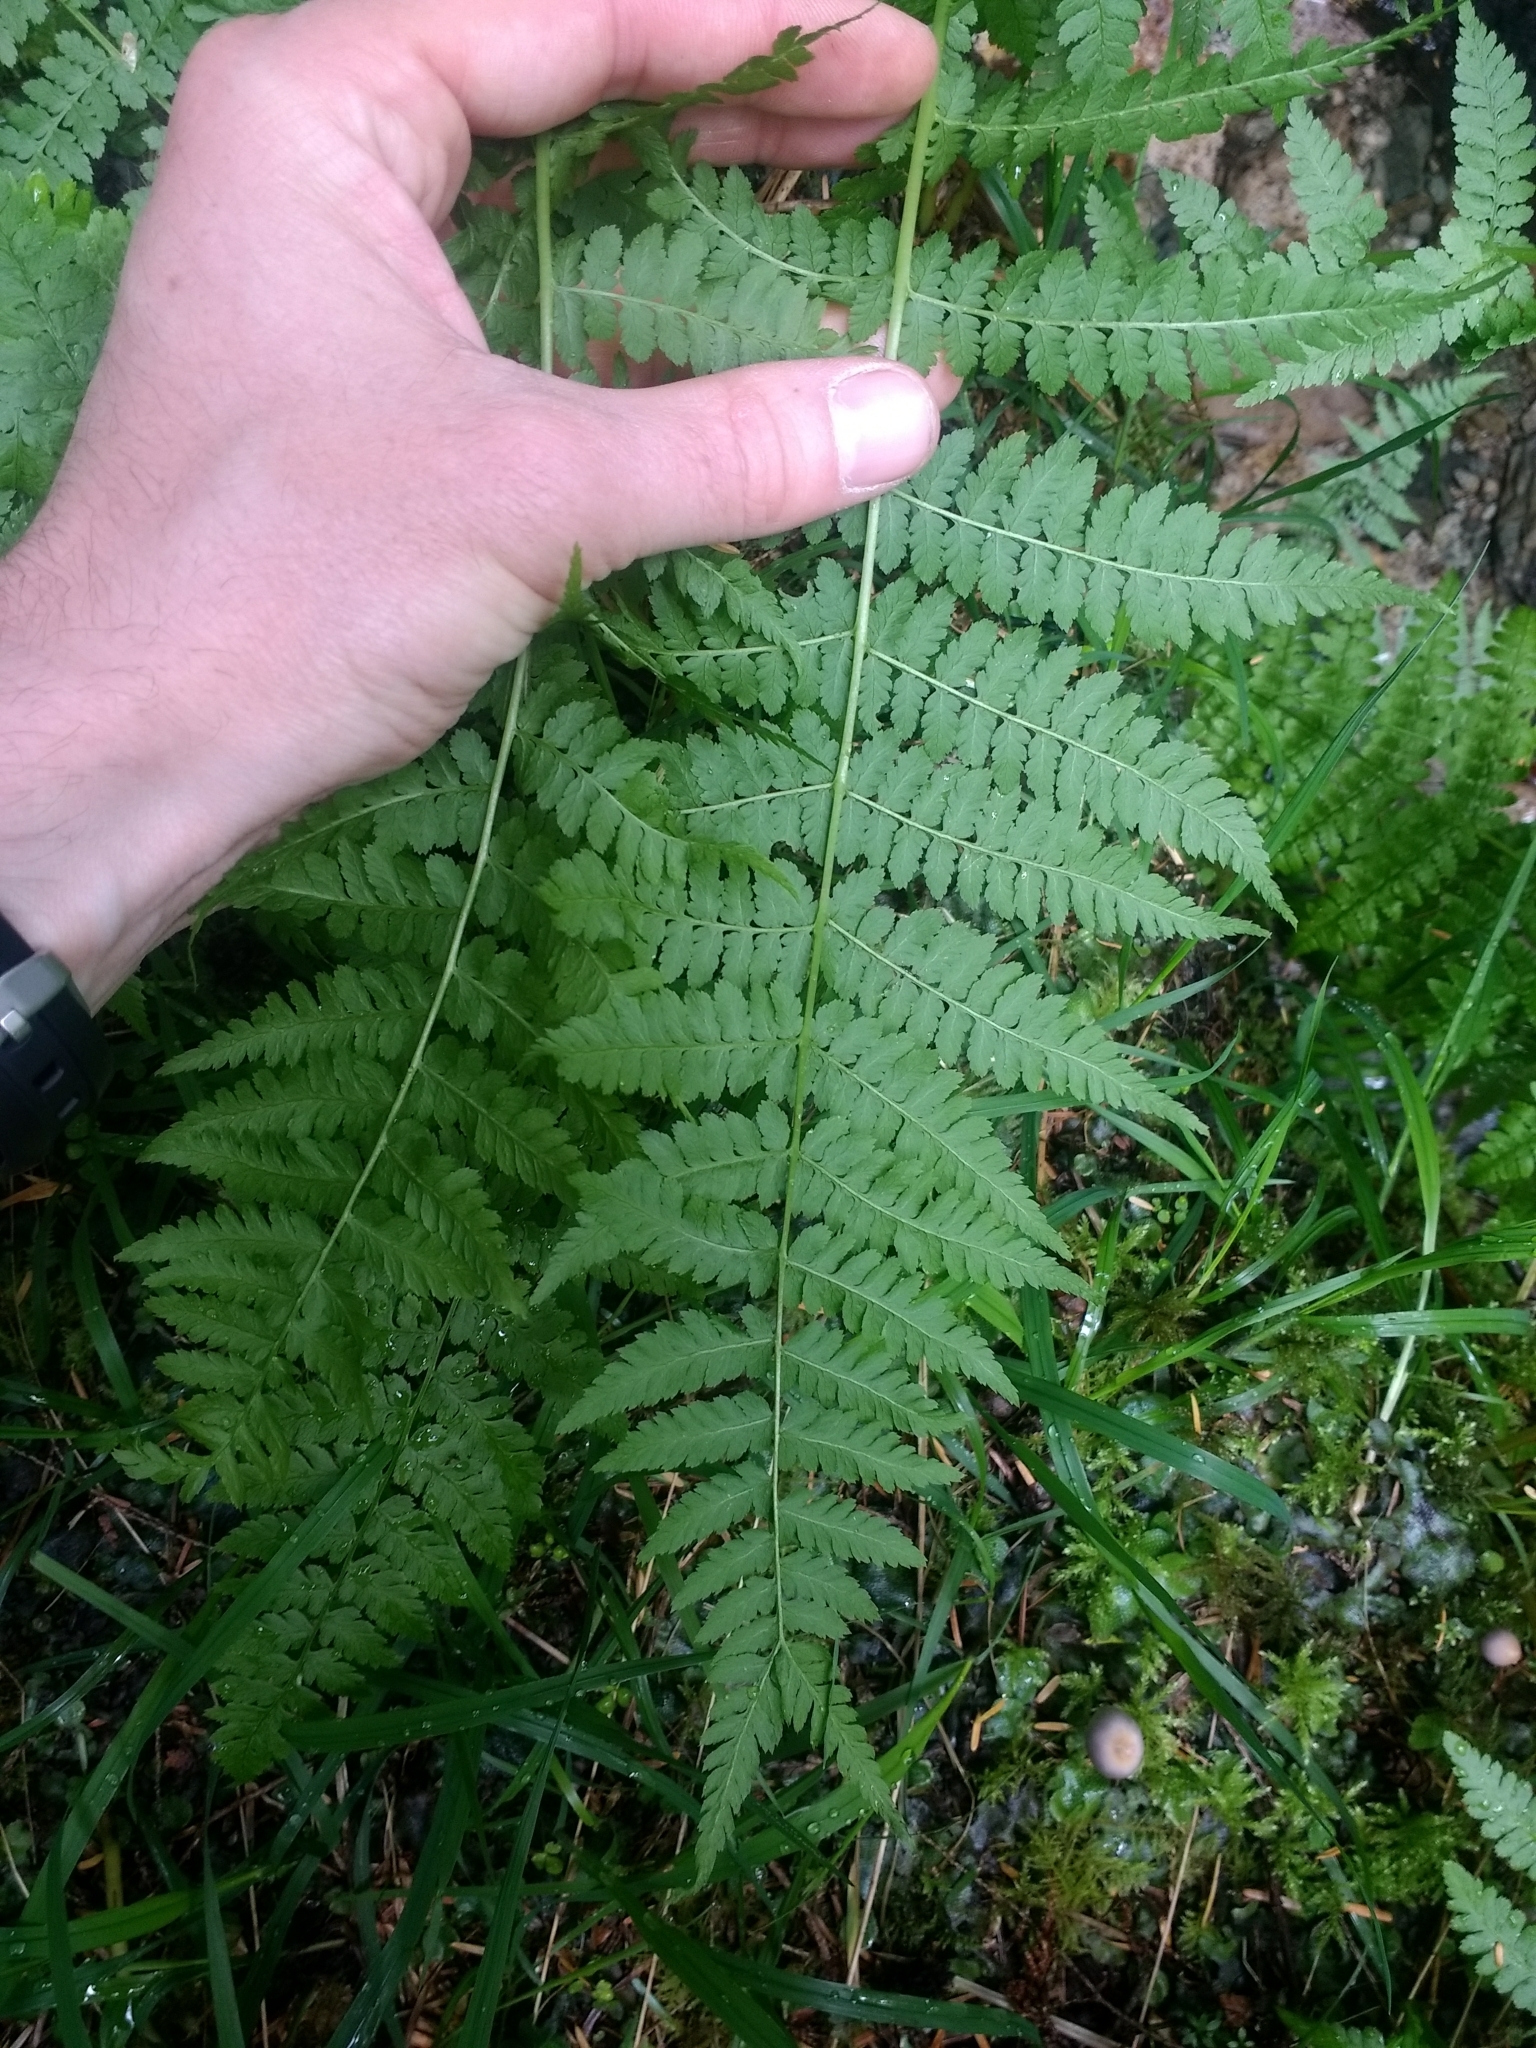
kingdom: Plantae
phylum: Tracheophyta
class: Polypodiopsida
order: Polypodiales
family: Athyriaceae
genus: Athyrium
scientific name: Athyrium filix-femina
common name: Lady fern
